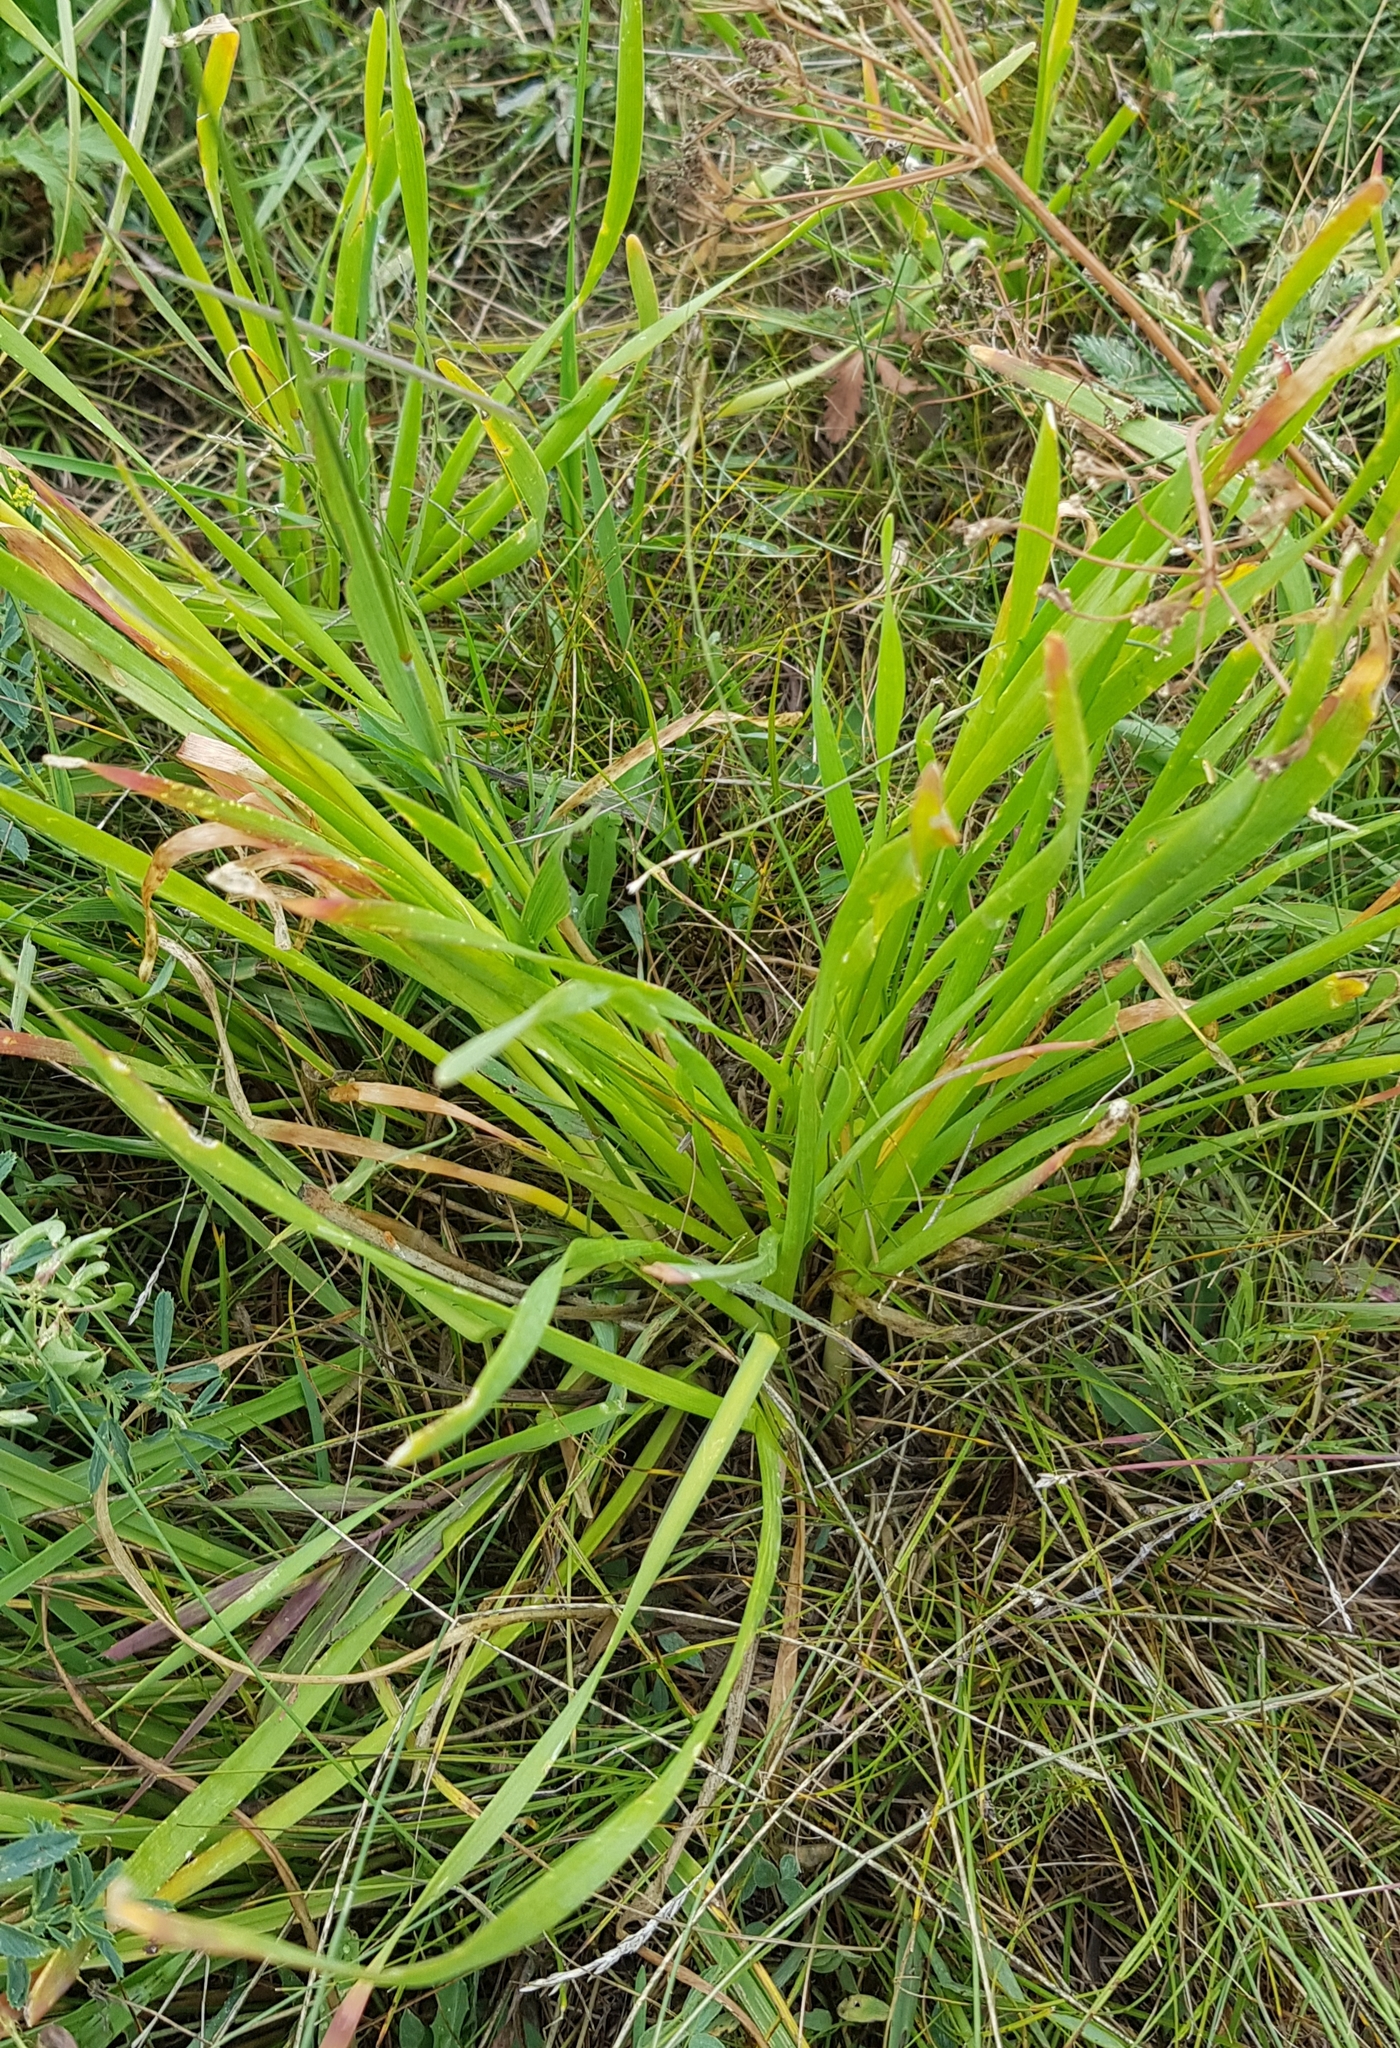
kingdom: Plantae
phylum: Tracheophyta
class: Liliopsida
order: Asparagales
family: Amaryllidaceae
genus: Allium
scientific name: Allium senescens
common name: German garlic
